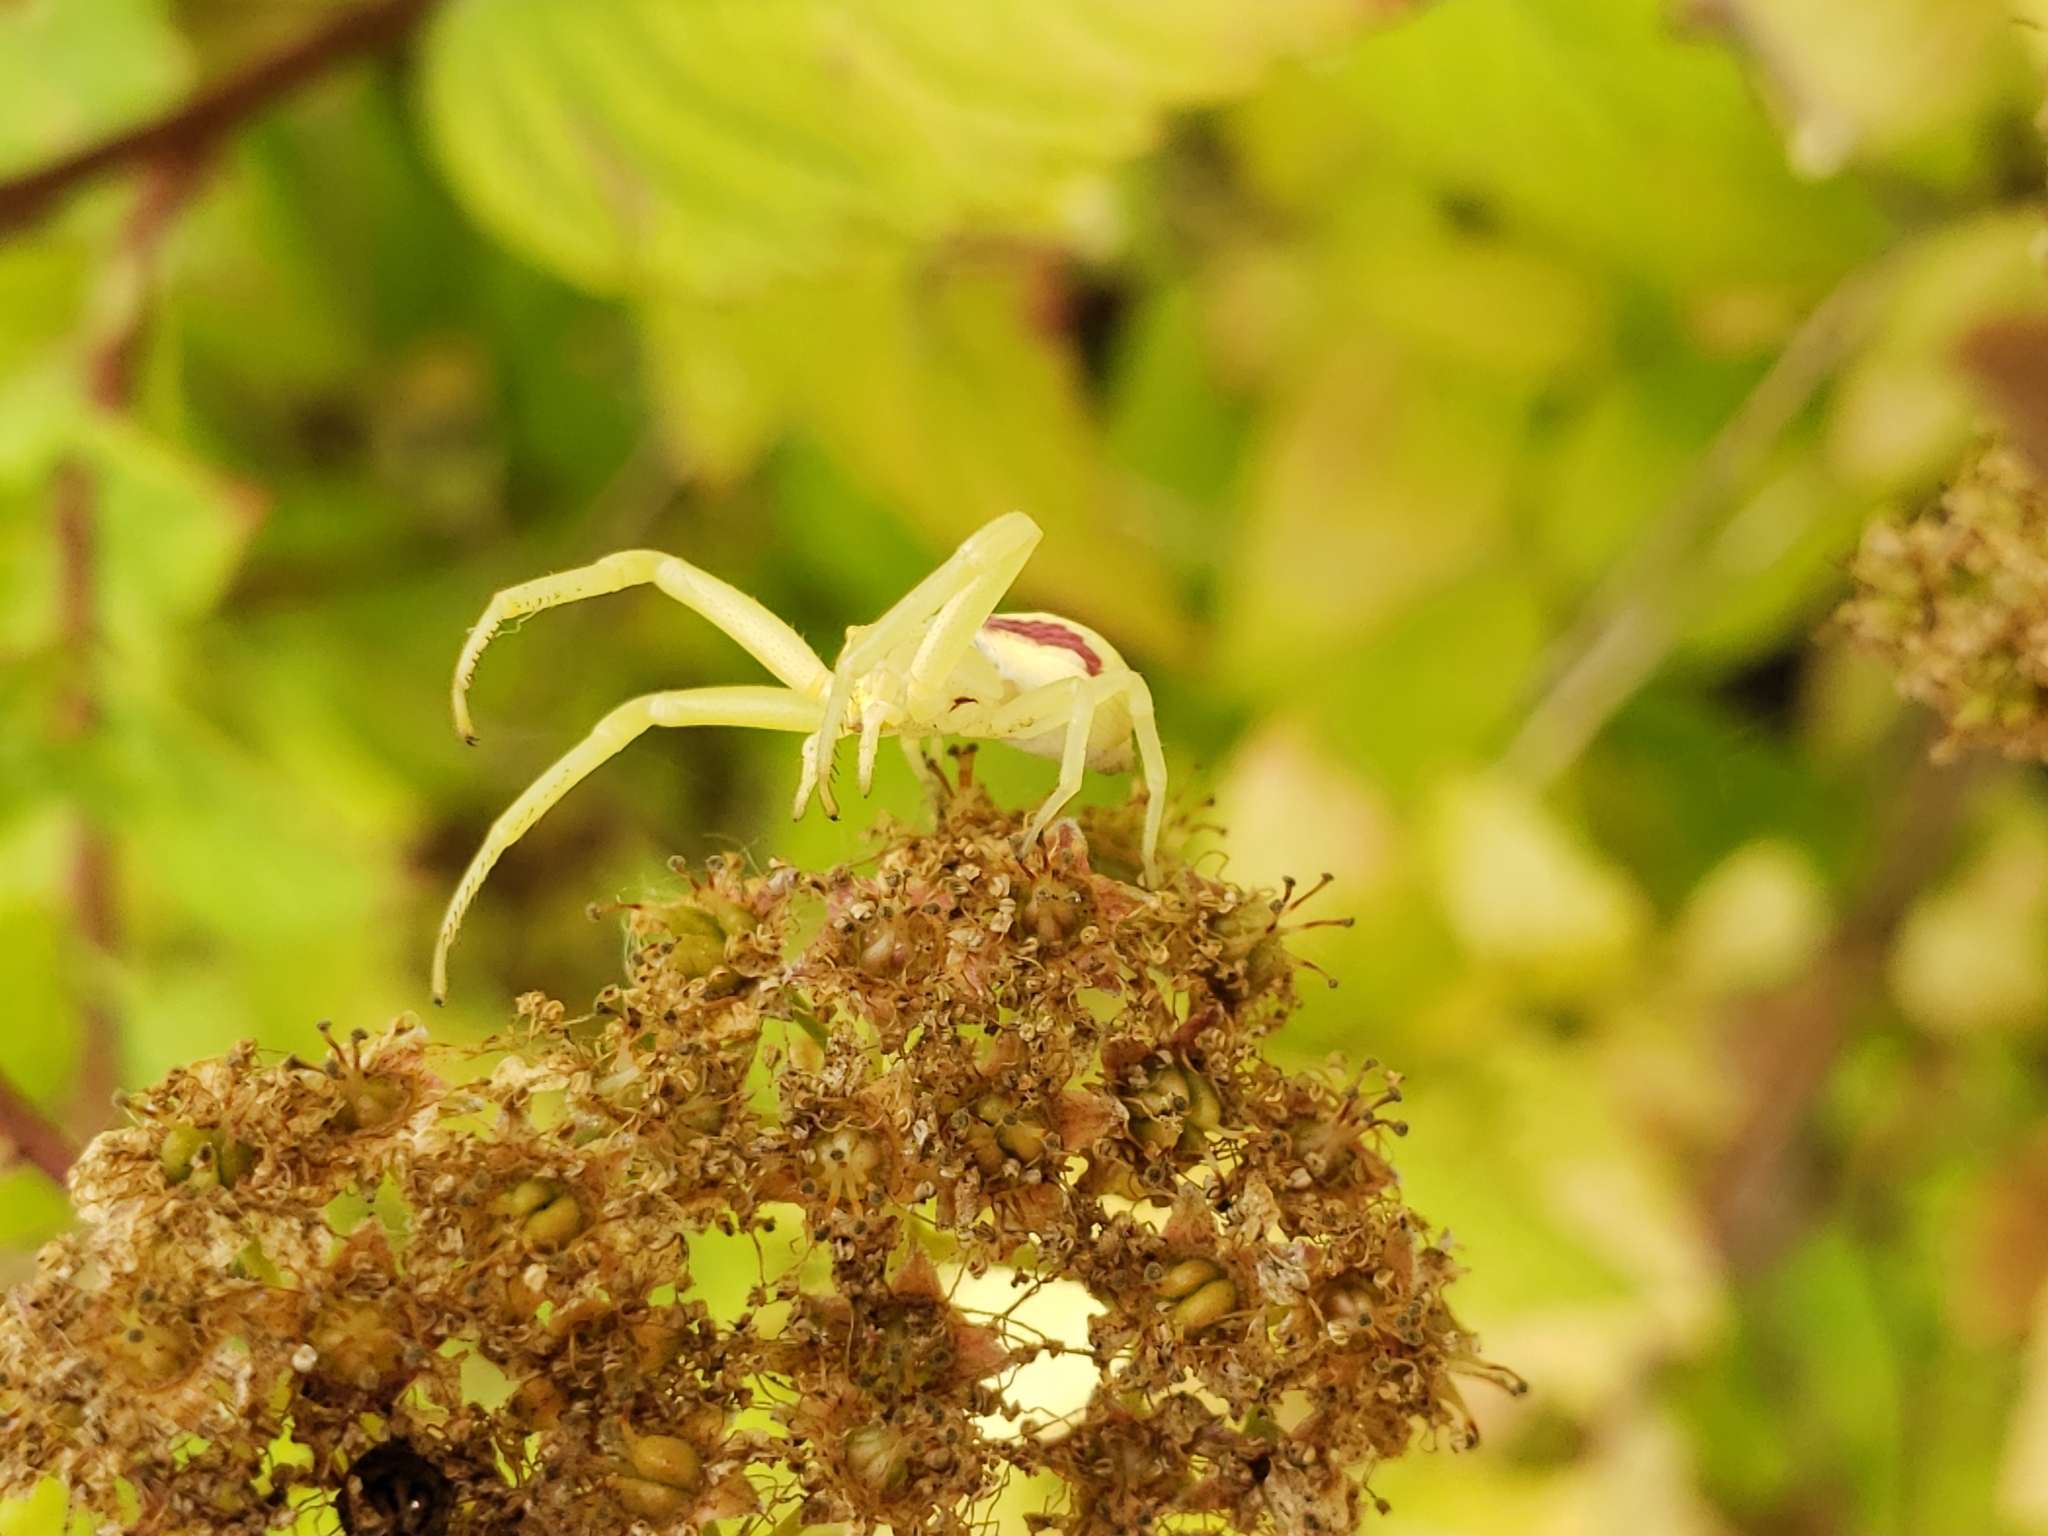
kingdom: Animalia
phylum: Arthropoda
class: Arachnida
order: Araneae
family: Thomisidae
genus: Misumena
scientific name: Misumena vatia
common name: Goldenrod crab spider
